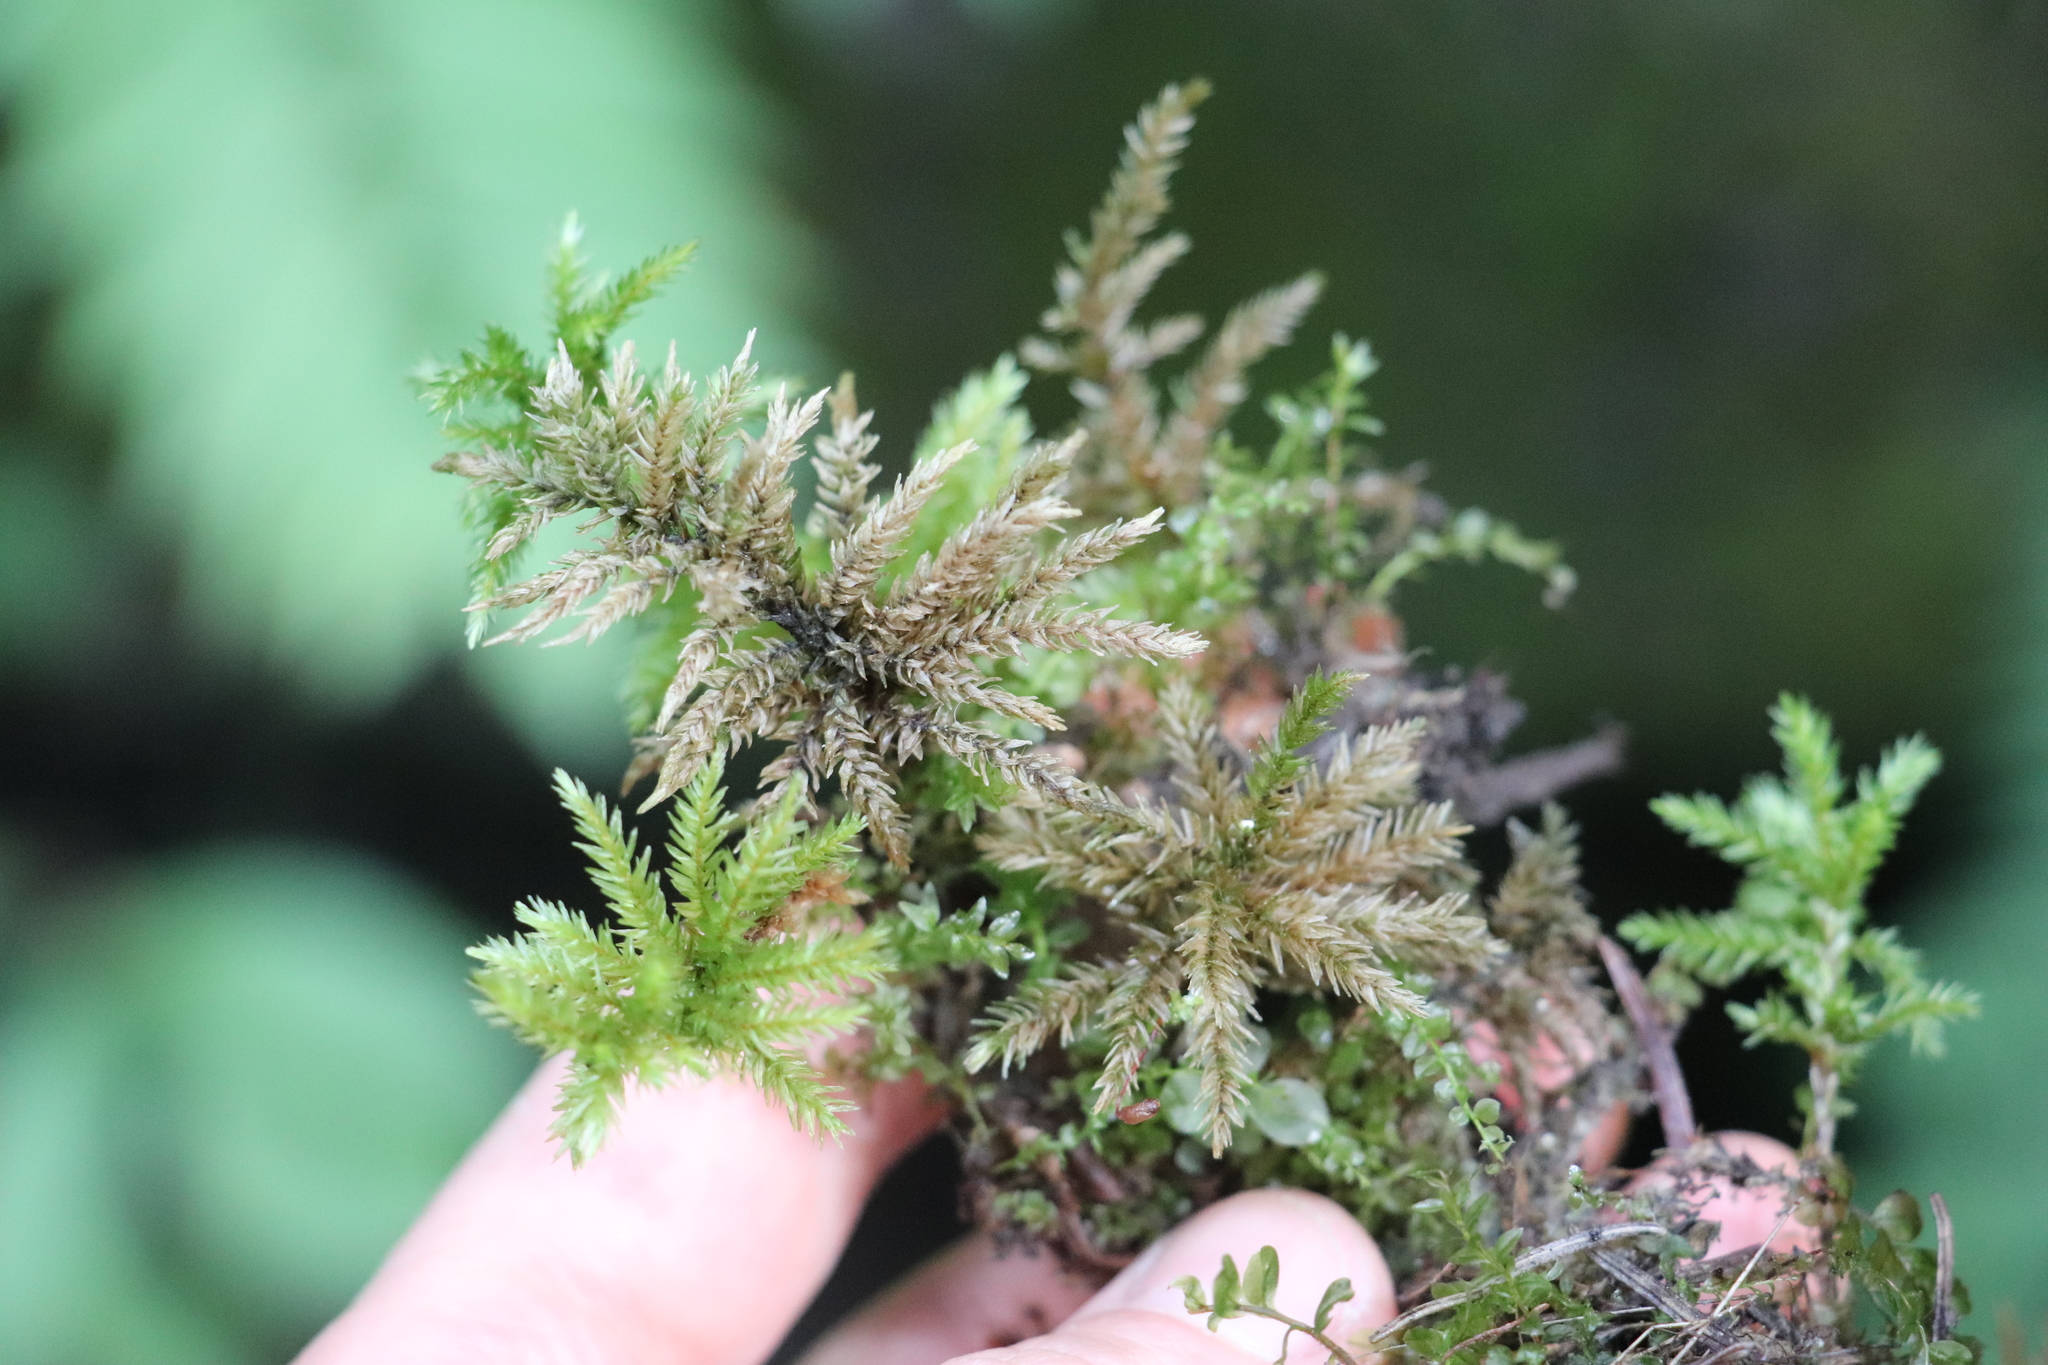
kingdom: Plantae
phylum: Bryophyta
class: Bryopsida
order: Hypnales
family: Climaciaceae
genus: Climacium
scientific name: Climacium dendroides
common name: Northern tree moss
